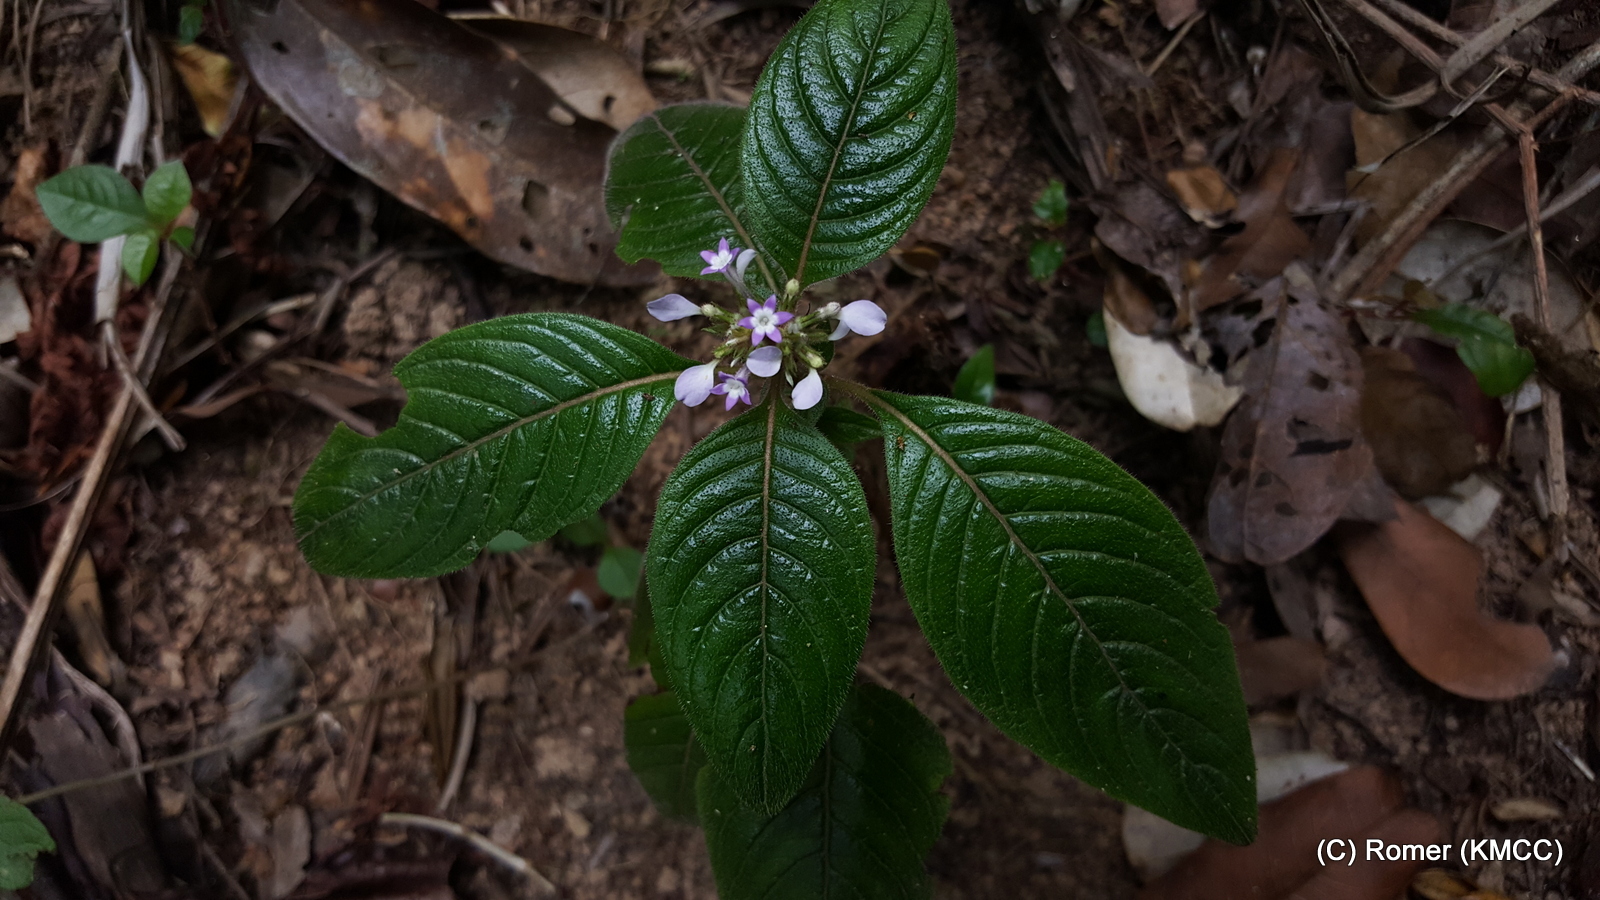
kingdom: Plantae
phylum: Tracheophyta
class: Magnoliopsida
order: Gentianales
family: Rubiaceae
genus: Phyllopentas
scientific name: Phyllopentas austro-orientalis
